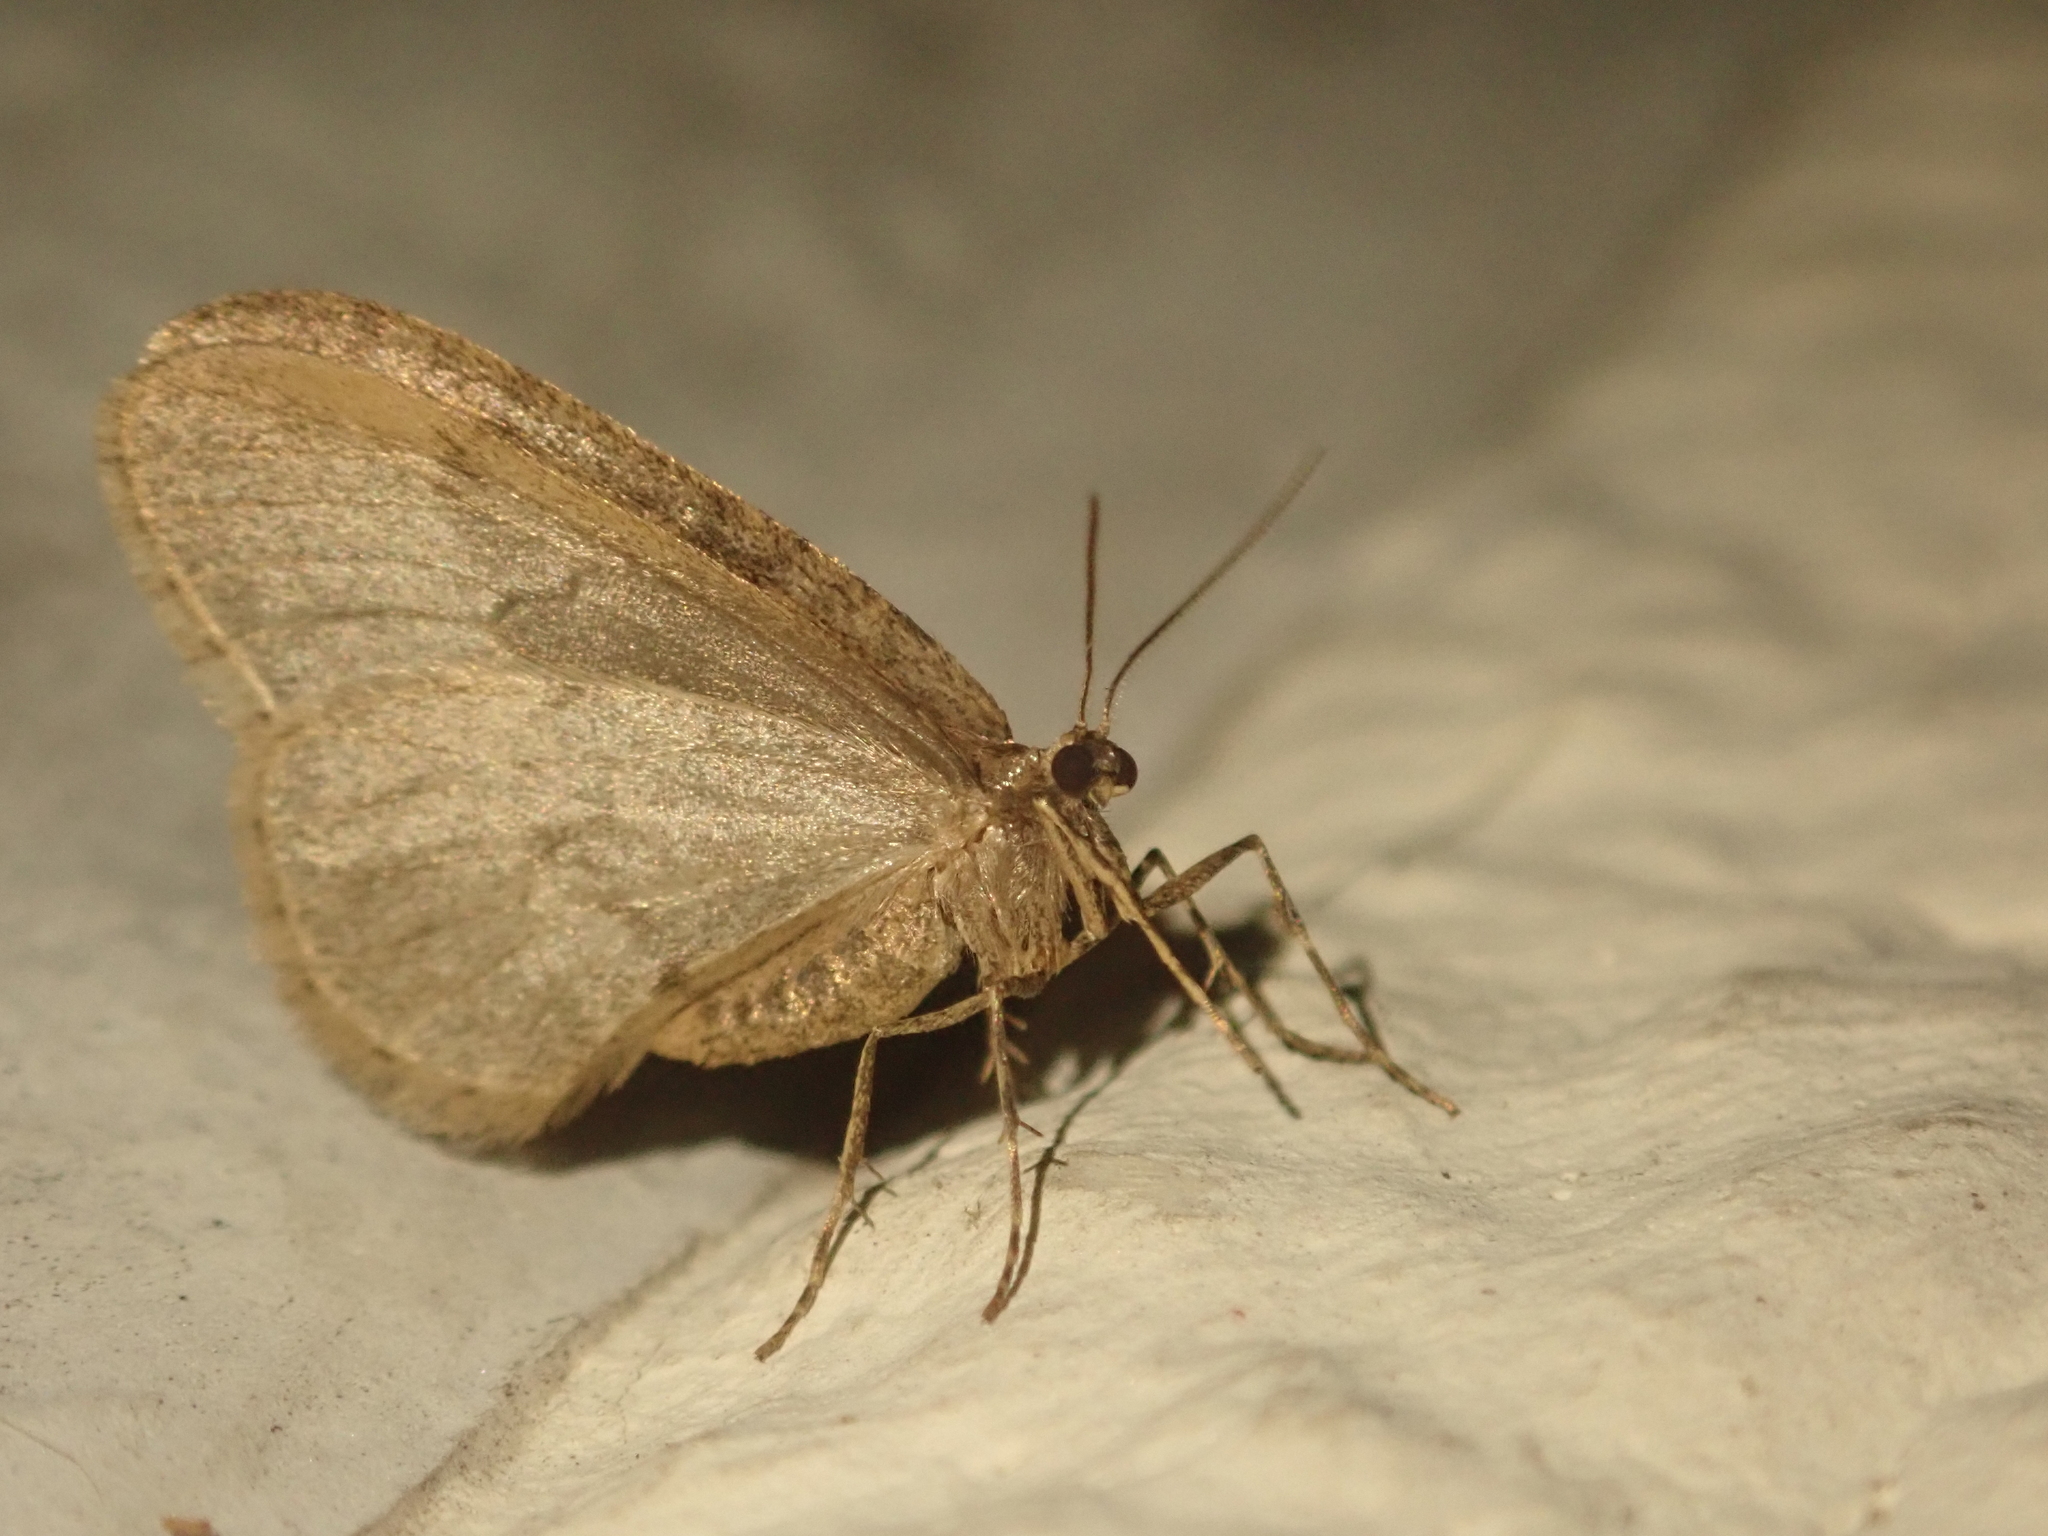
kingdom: Animalia
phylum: Arthropoda
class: Insecta
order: Lepidoptera
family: Geometridae
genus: Operophtera
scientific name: Operophtera brumata
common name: Winter moth
